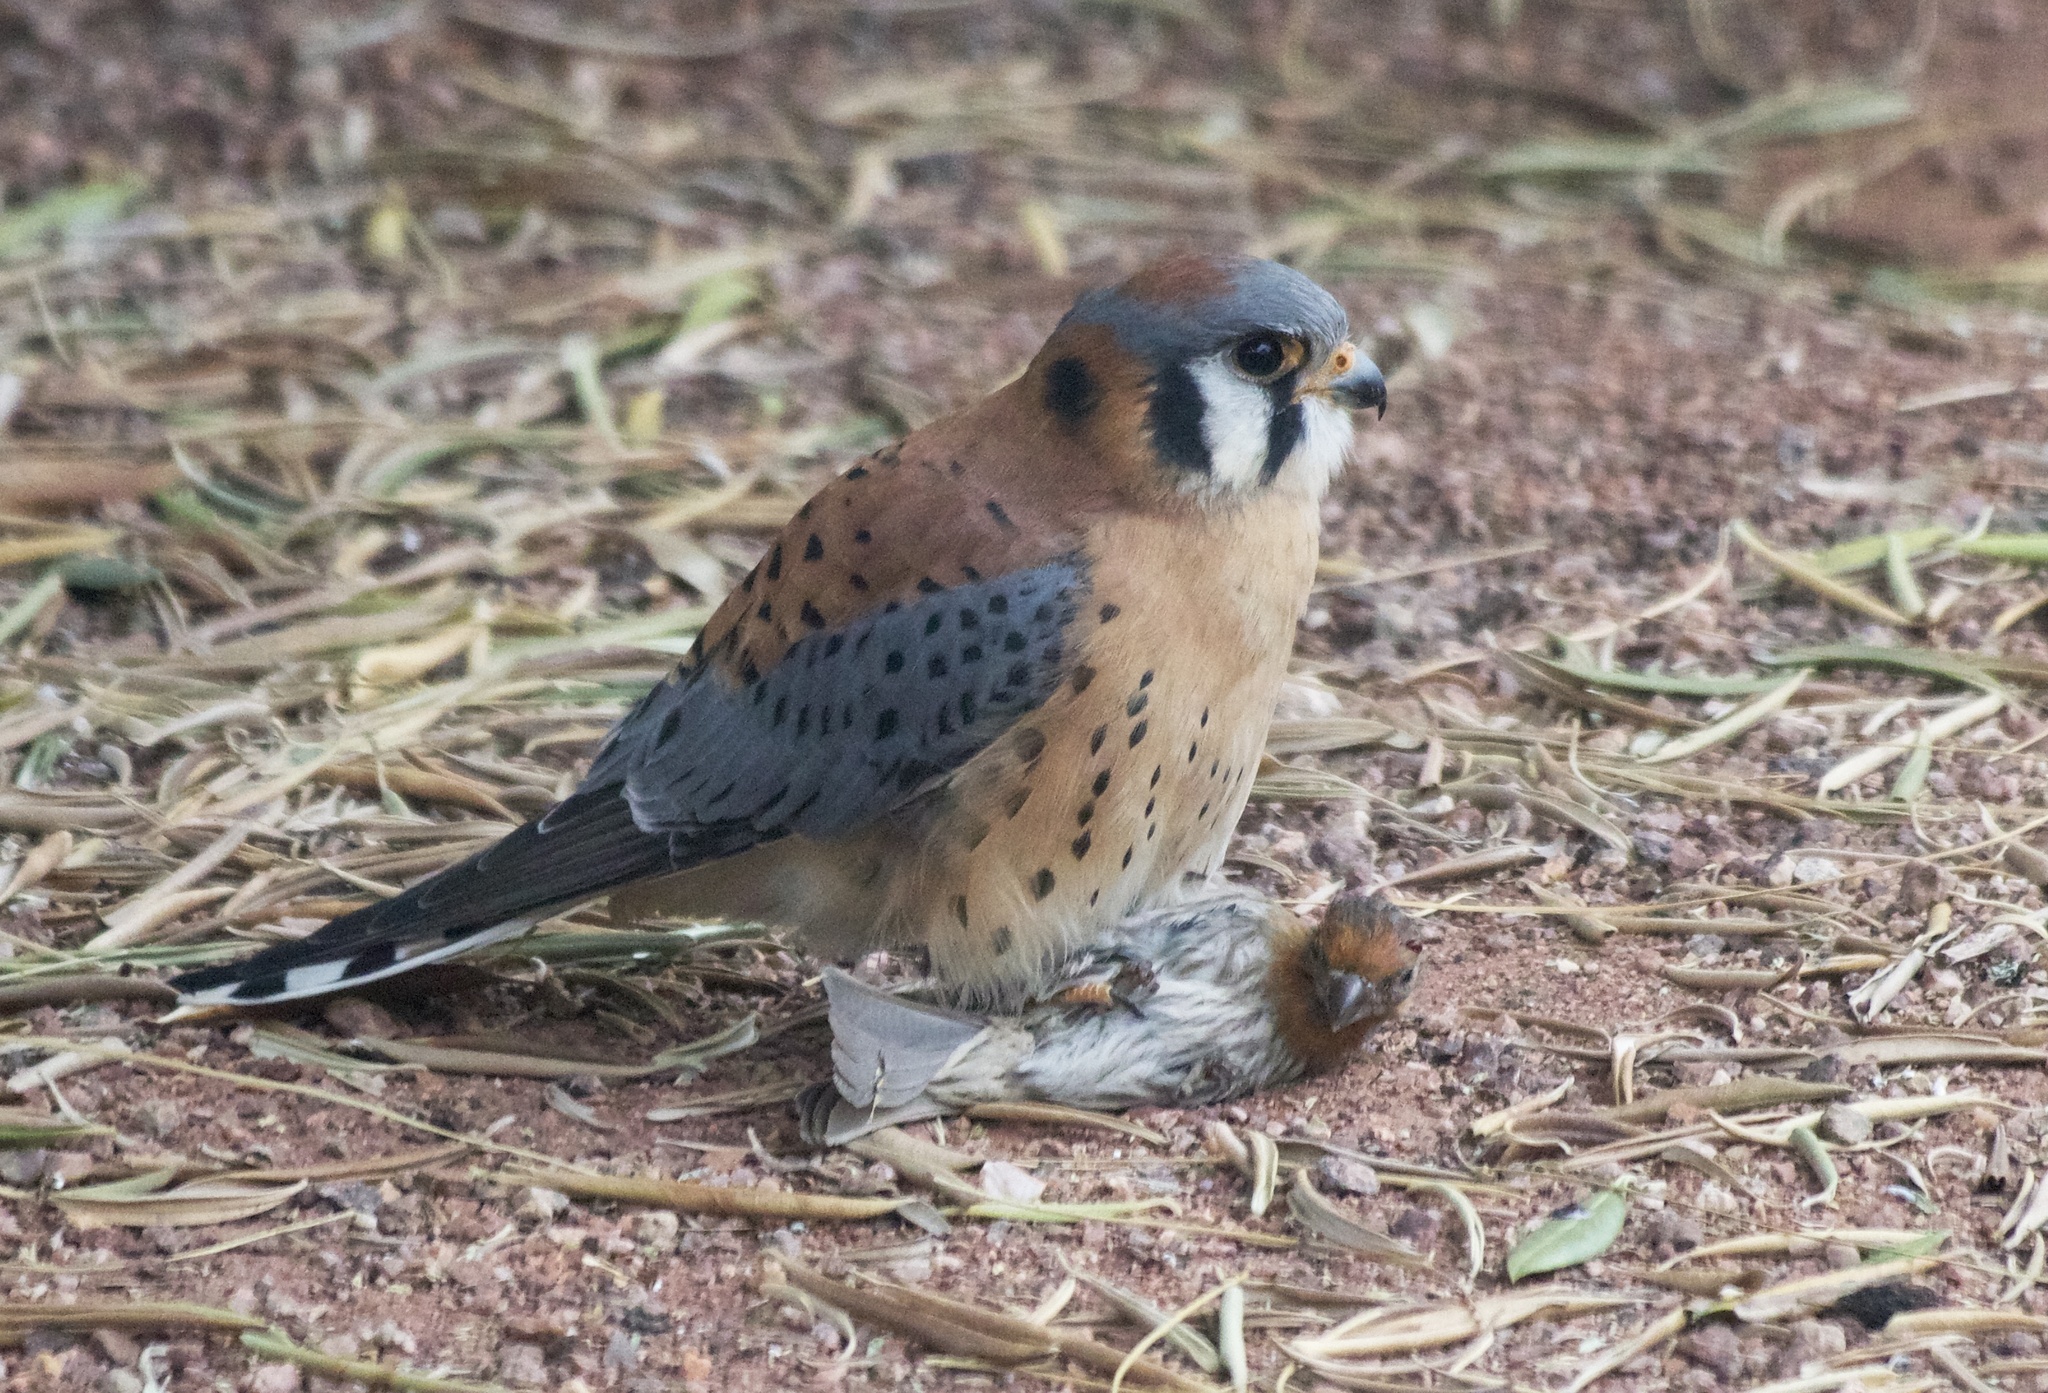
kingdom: Animalia
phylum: Chordata
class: Aves
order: Falconiformes
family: Falconidae
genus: Falco
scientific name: Falco sparverius
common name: American kestrel
